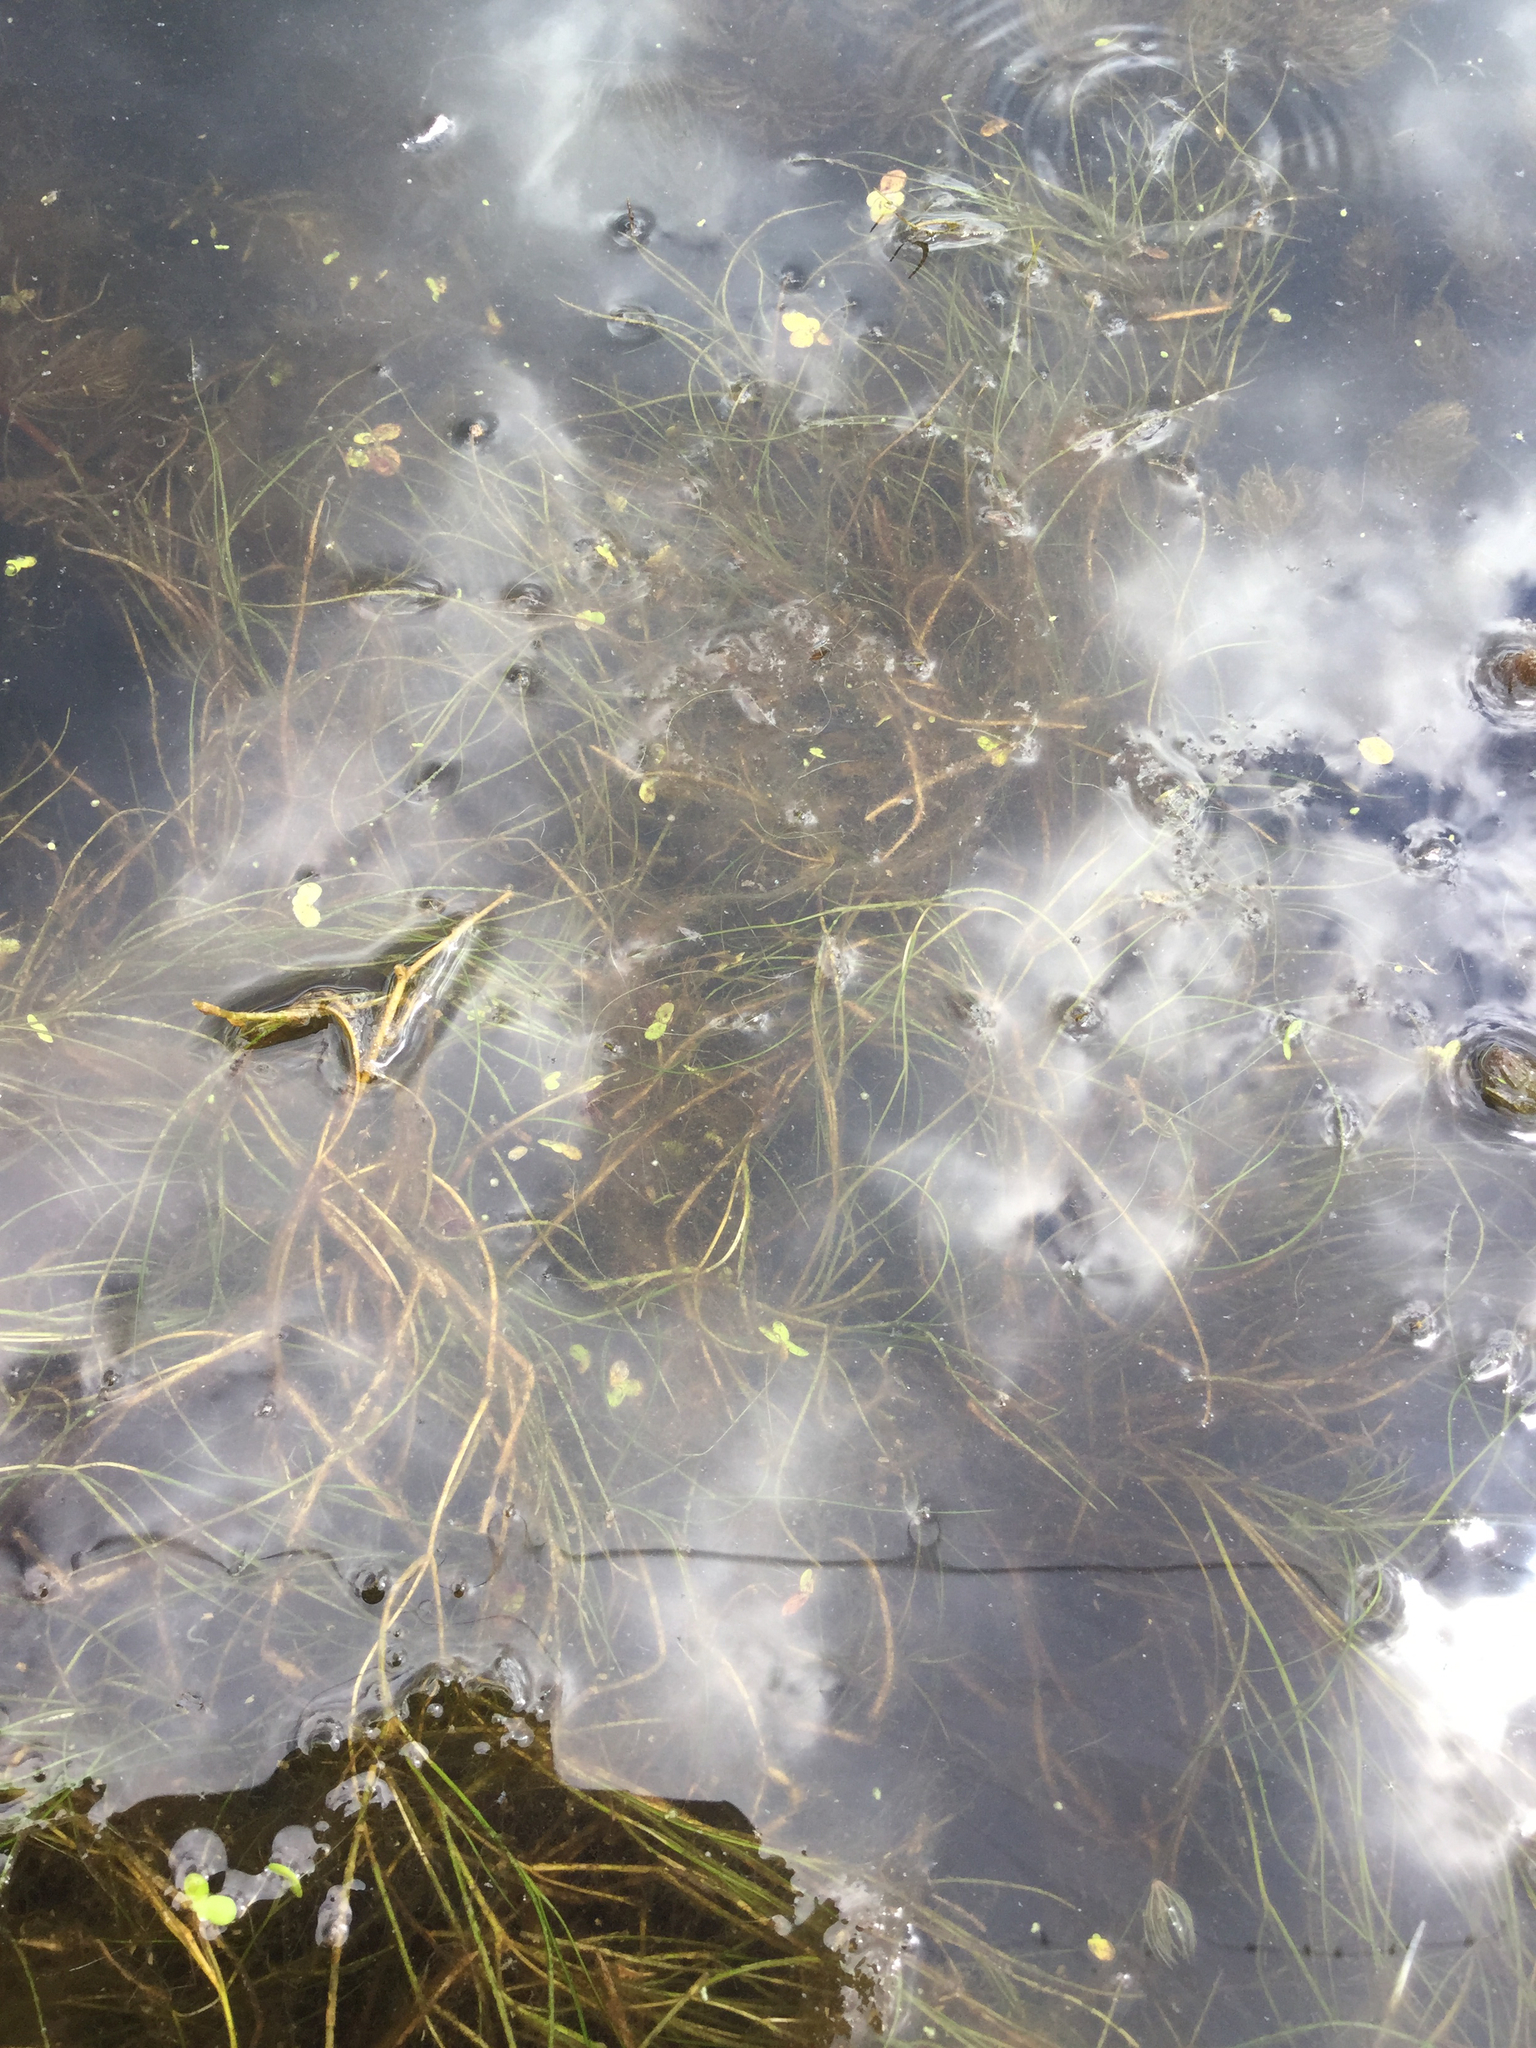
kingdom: Plantae
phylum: Tracheophyta
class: Liliopsida
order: Alismatales
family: Potamogetonaceae
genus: Stuckenia
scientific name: Stuckenia pectinata
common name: Sago pondweed
